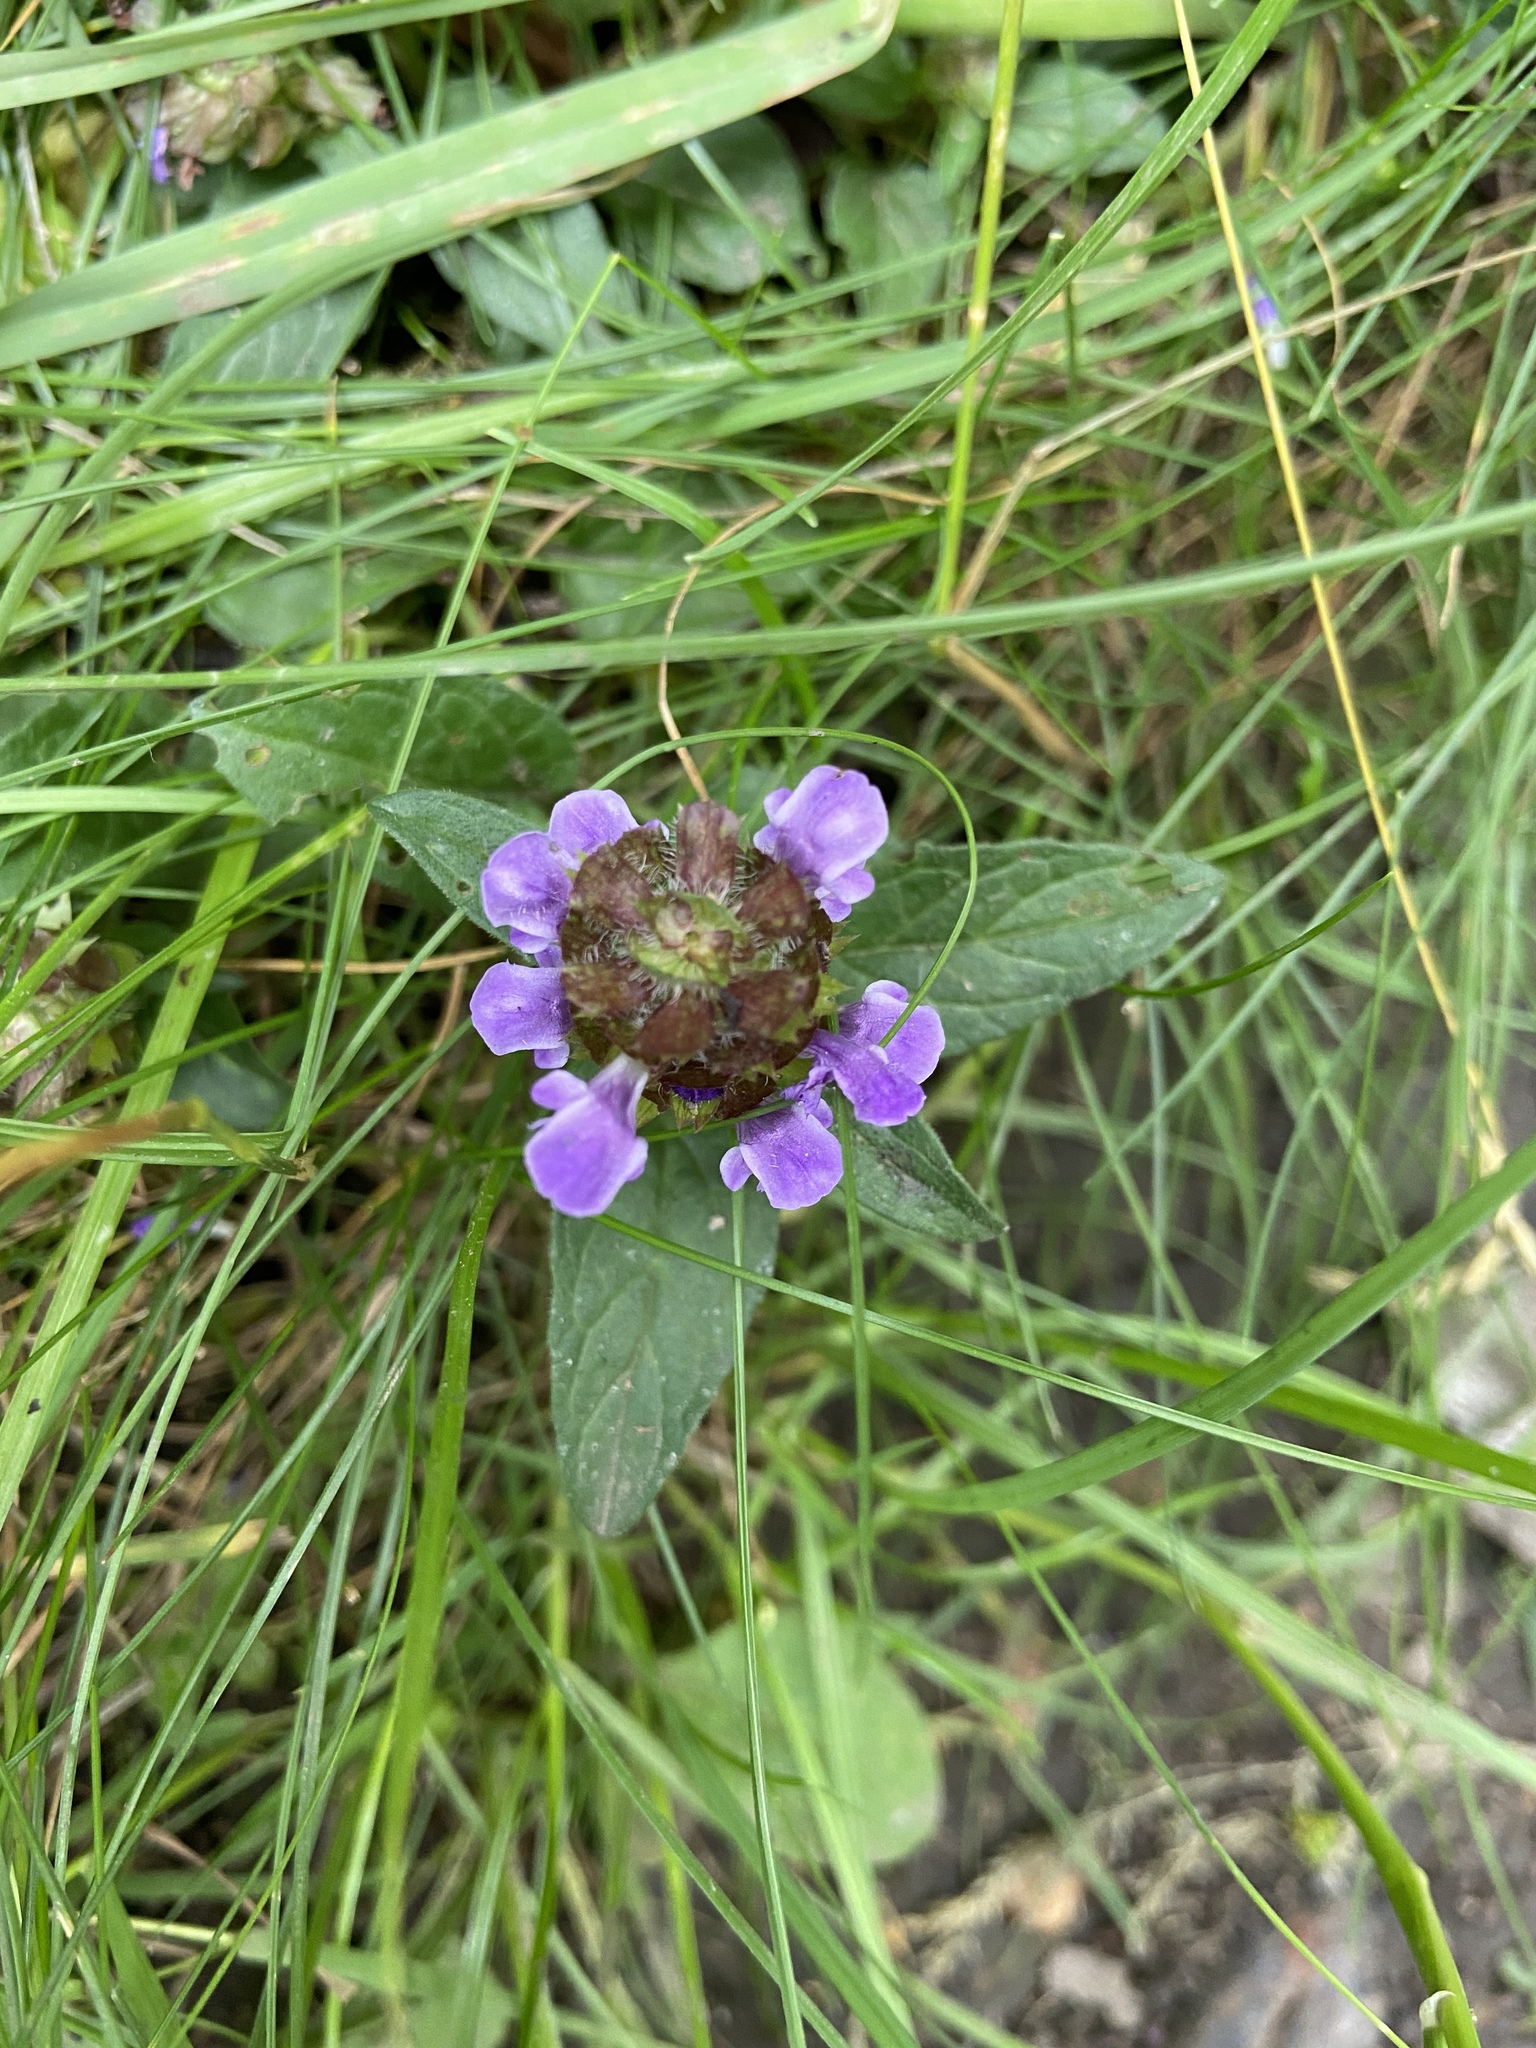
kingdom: Plantae
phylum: Tracheophyta
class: Magnoliopsida
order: Lamiales
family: Lamiaceae
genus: Prunella
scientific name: Prunella vulgaris
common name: Heal-all
